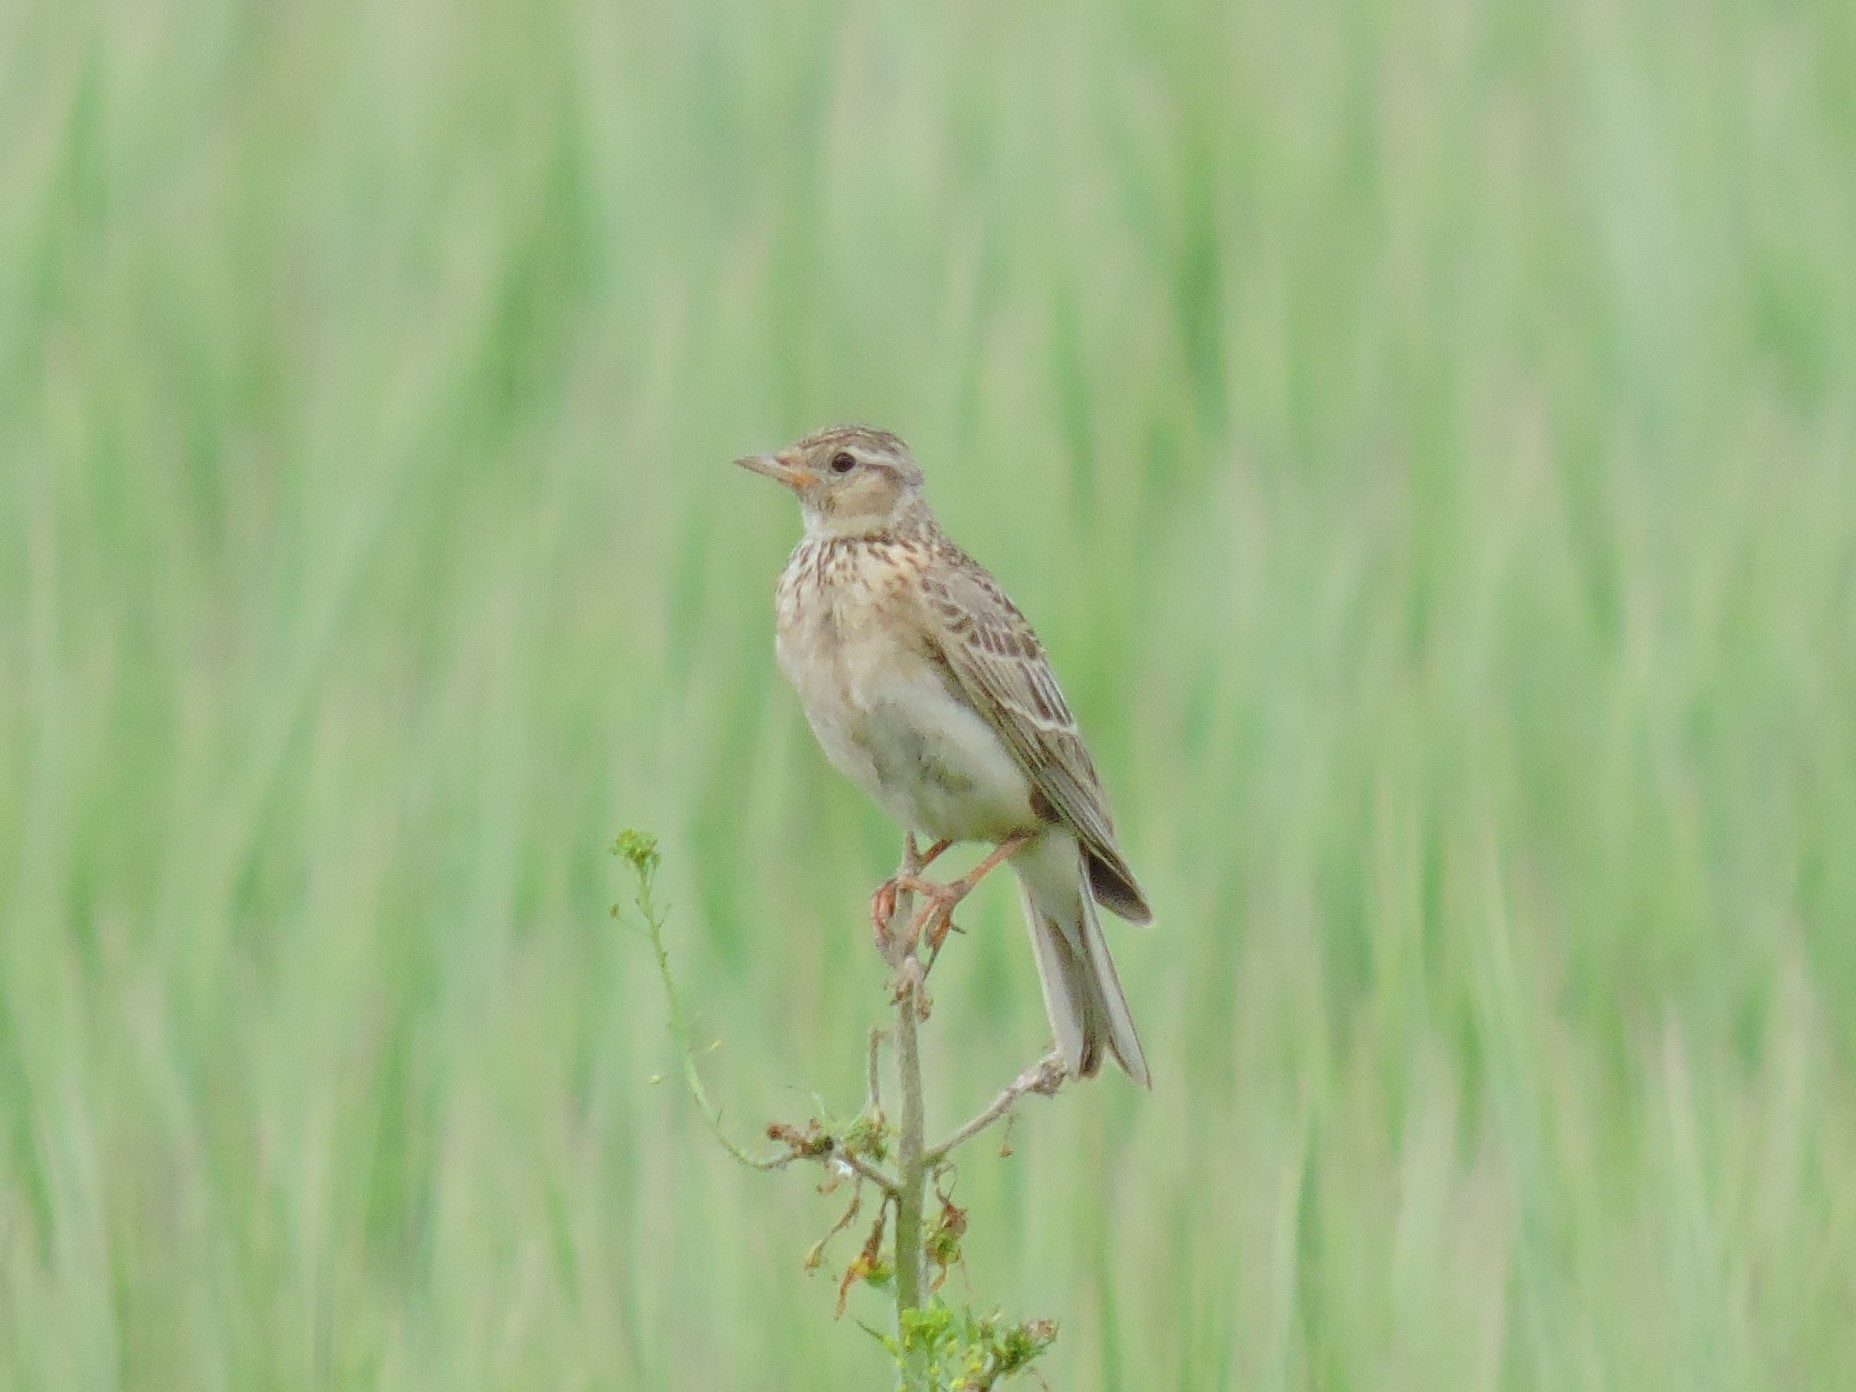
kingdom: Animalia
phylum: Chordata
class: Aves
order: Passeriformes
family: Alaudidae
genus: Alauda
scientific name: Alauda arvensis
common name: Eurasian skylark
